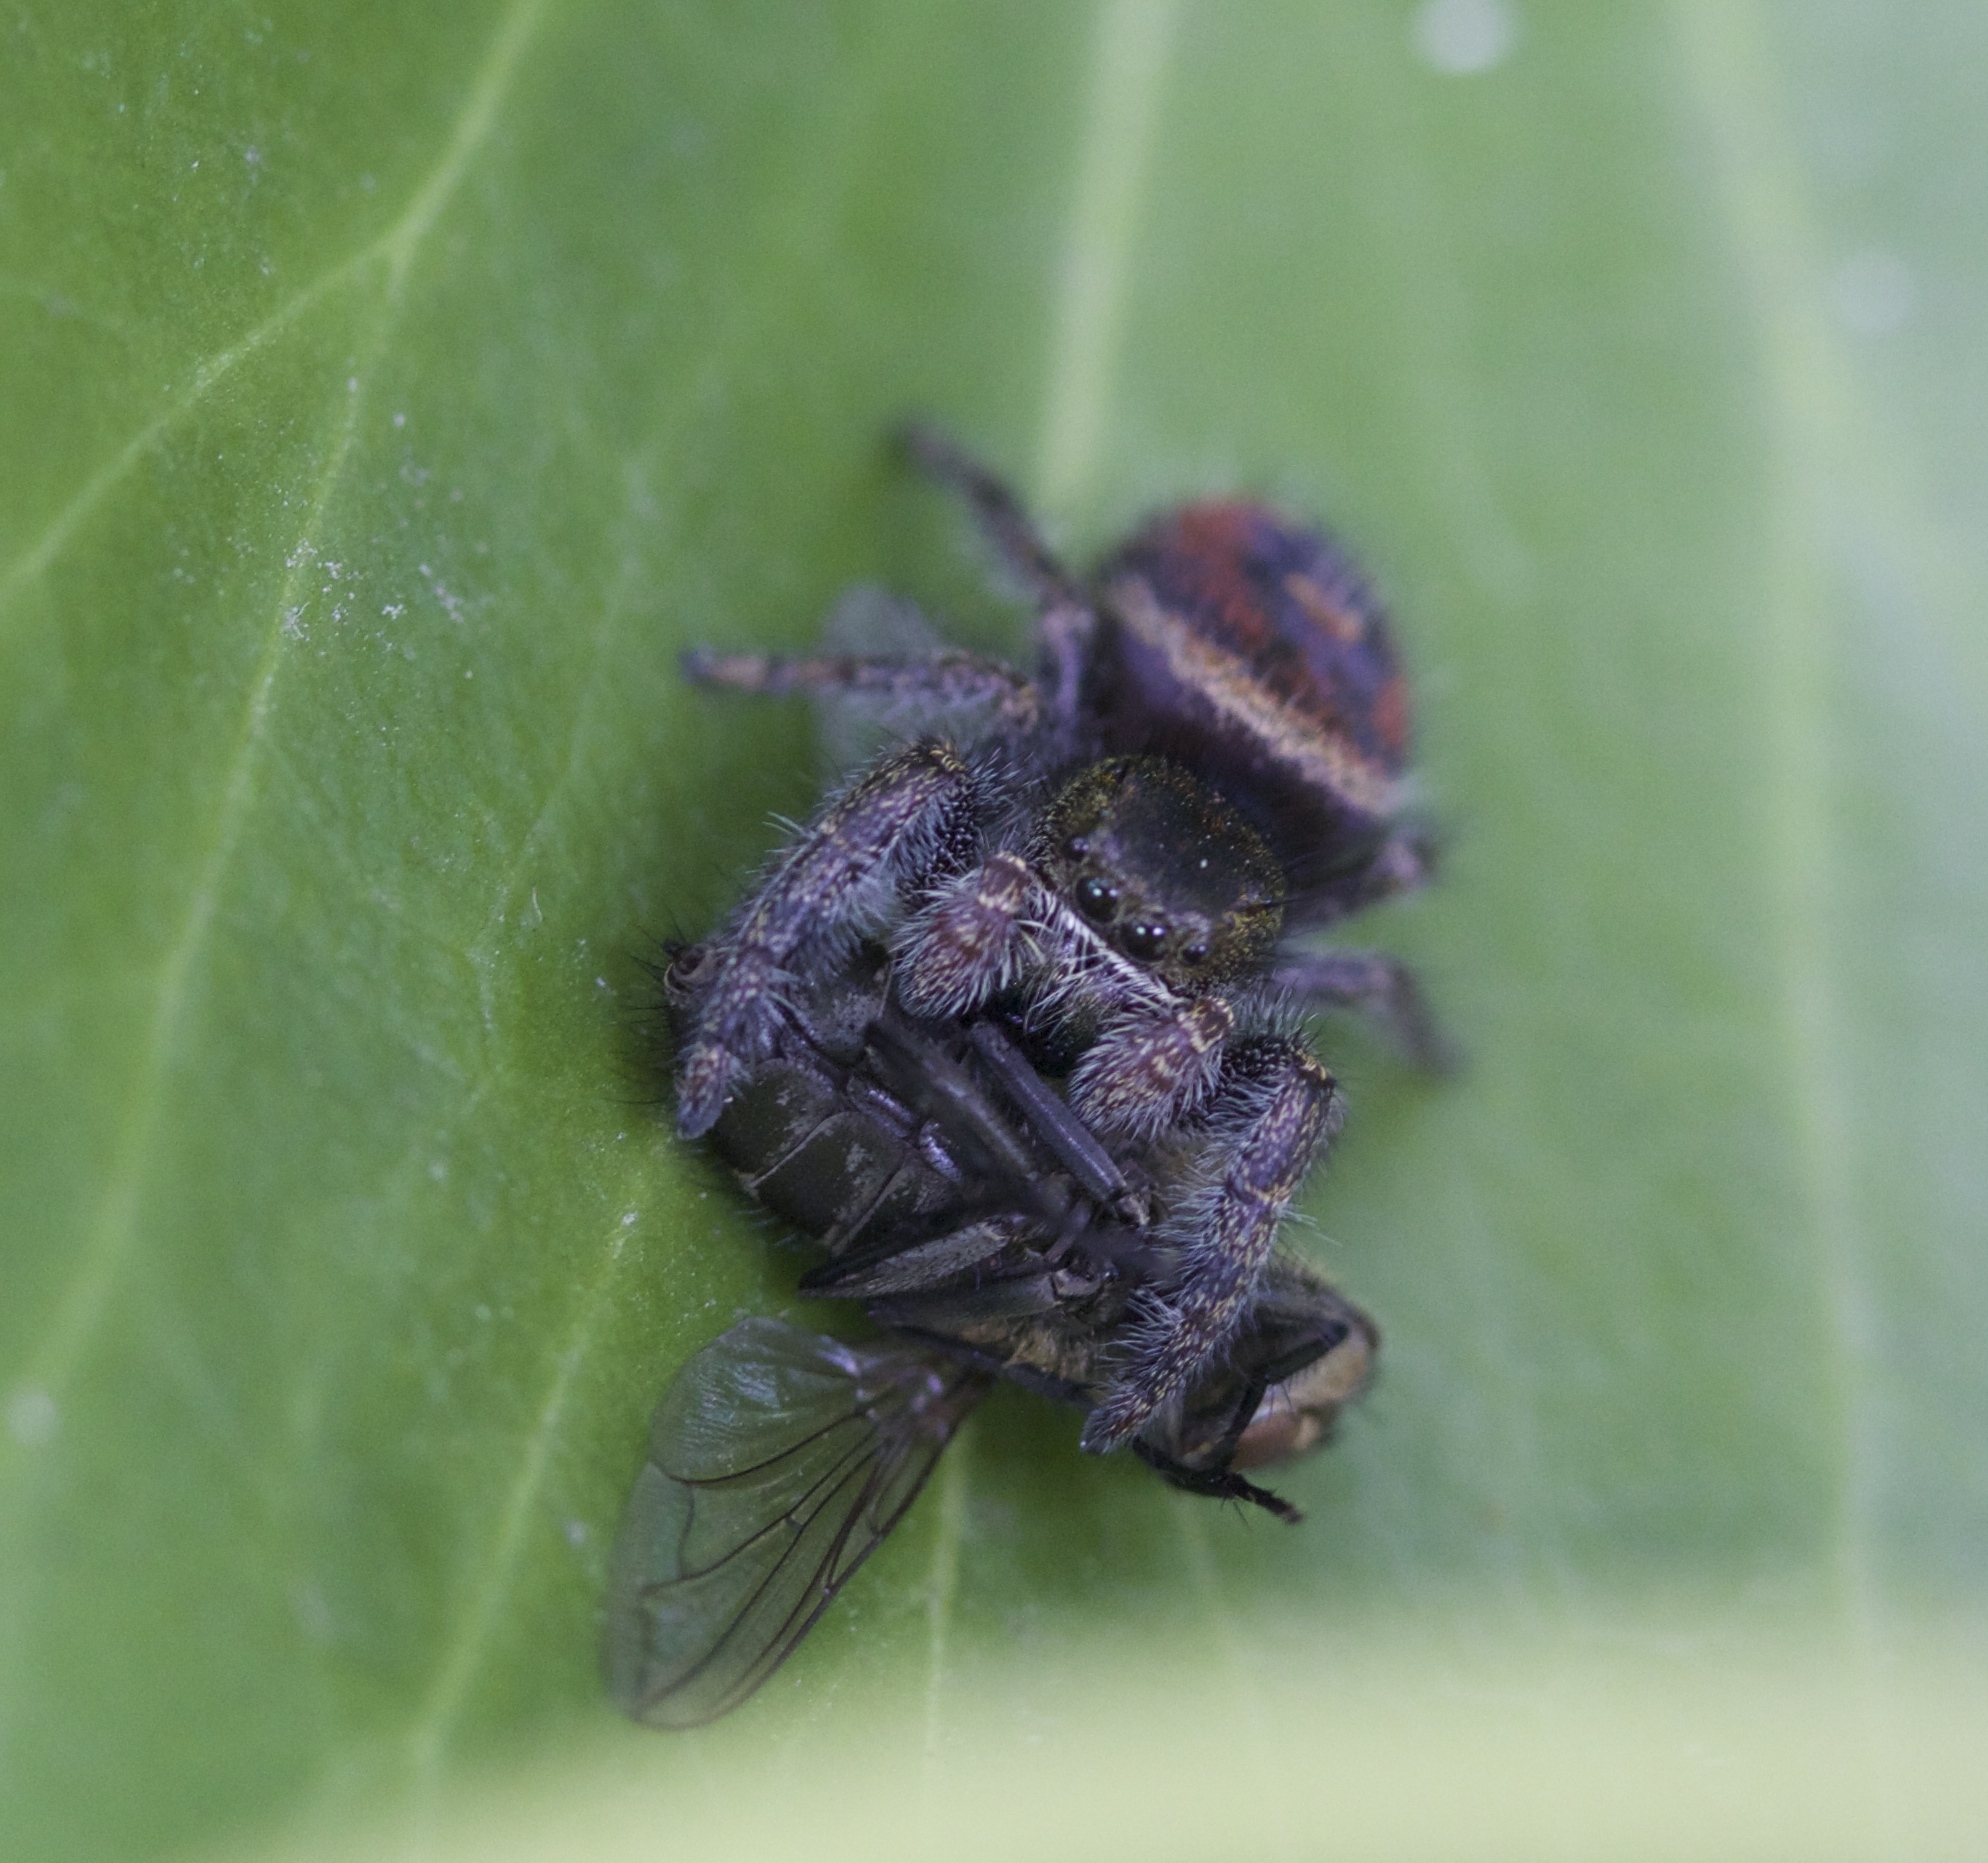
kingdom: Animalia
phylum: Arthropoda
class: Arachnida
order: Araneae
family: Salticidae
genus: Phidippus
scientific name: Phidippus johnsoni
